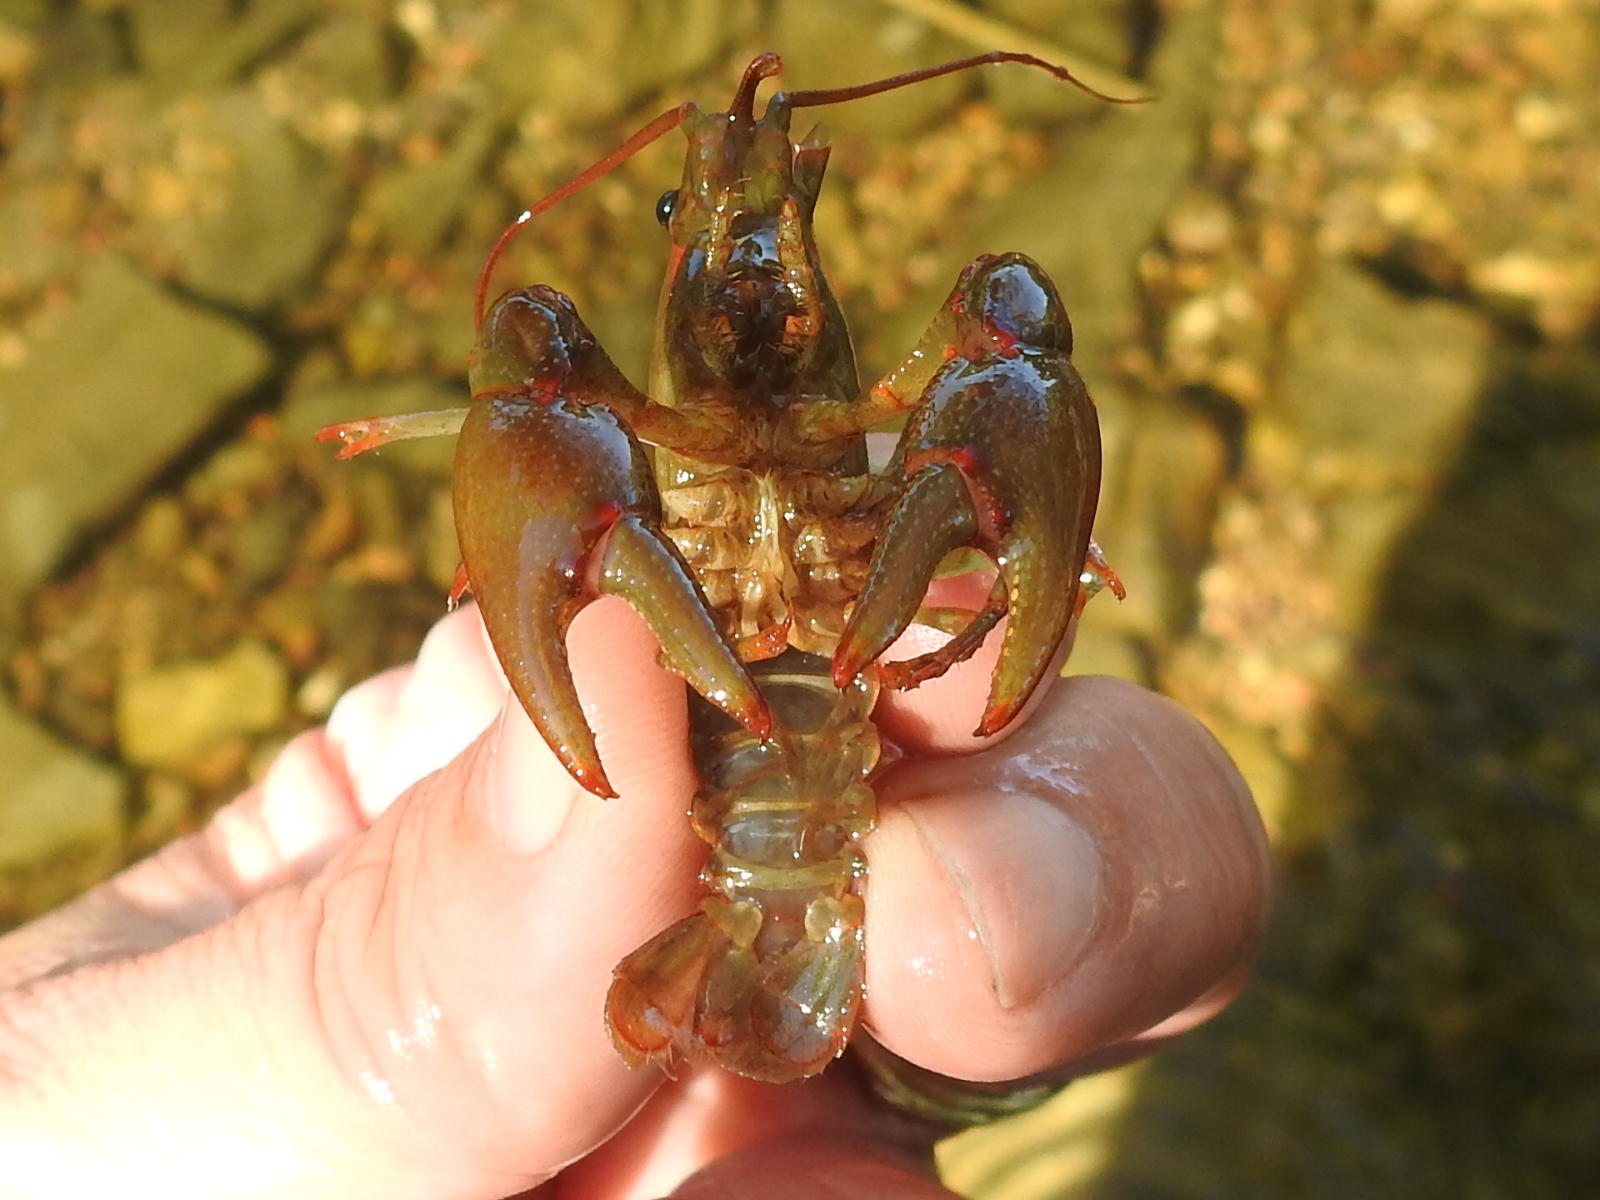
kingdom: Animalia
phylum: Arthropoda
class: Malacostraca
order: Decapoda
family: Cambaridae
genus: Faxonius
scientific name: Faxonius luteus
